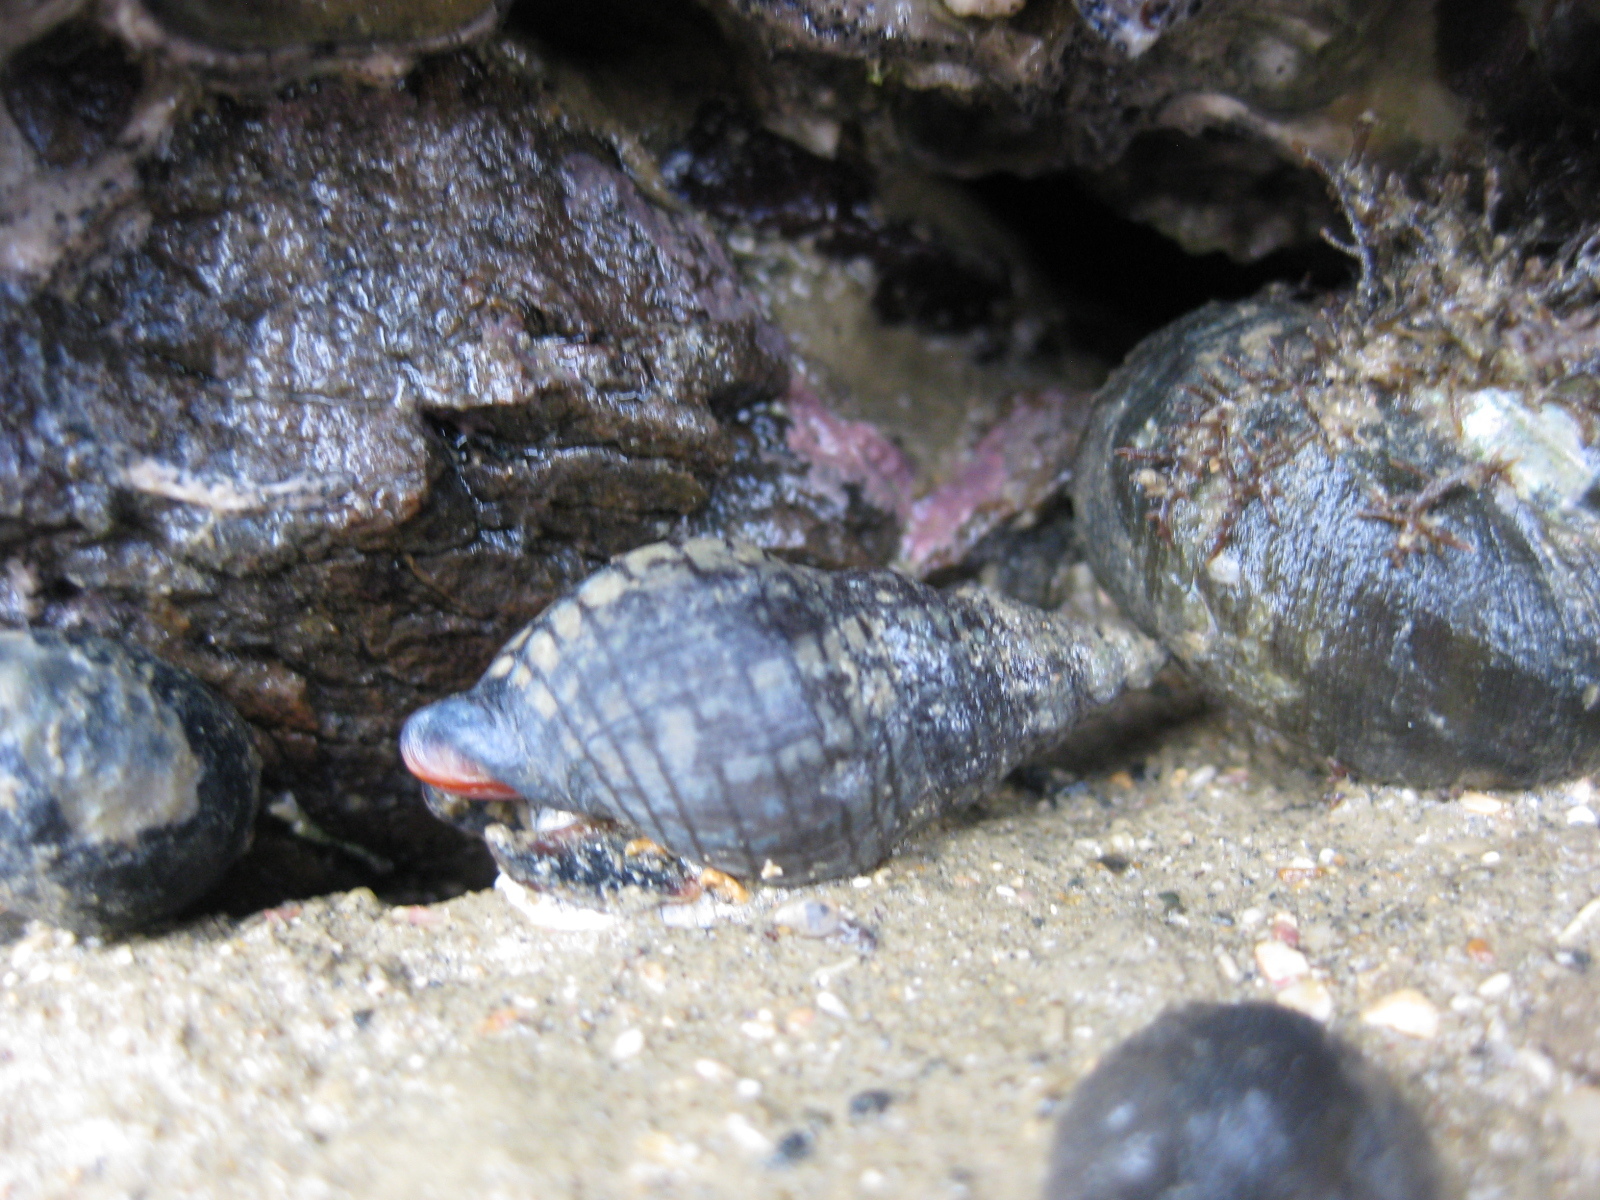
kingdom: Animalia
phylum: Mollusca
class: Gastropoda
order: Neogastropoda
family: Cominellidae
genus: Cominella
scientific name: Cominella virgata
